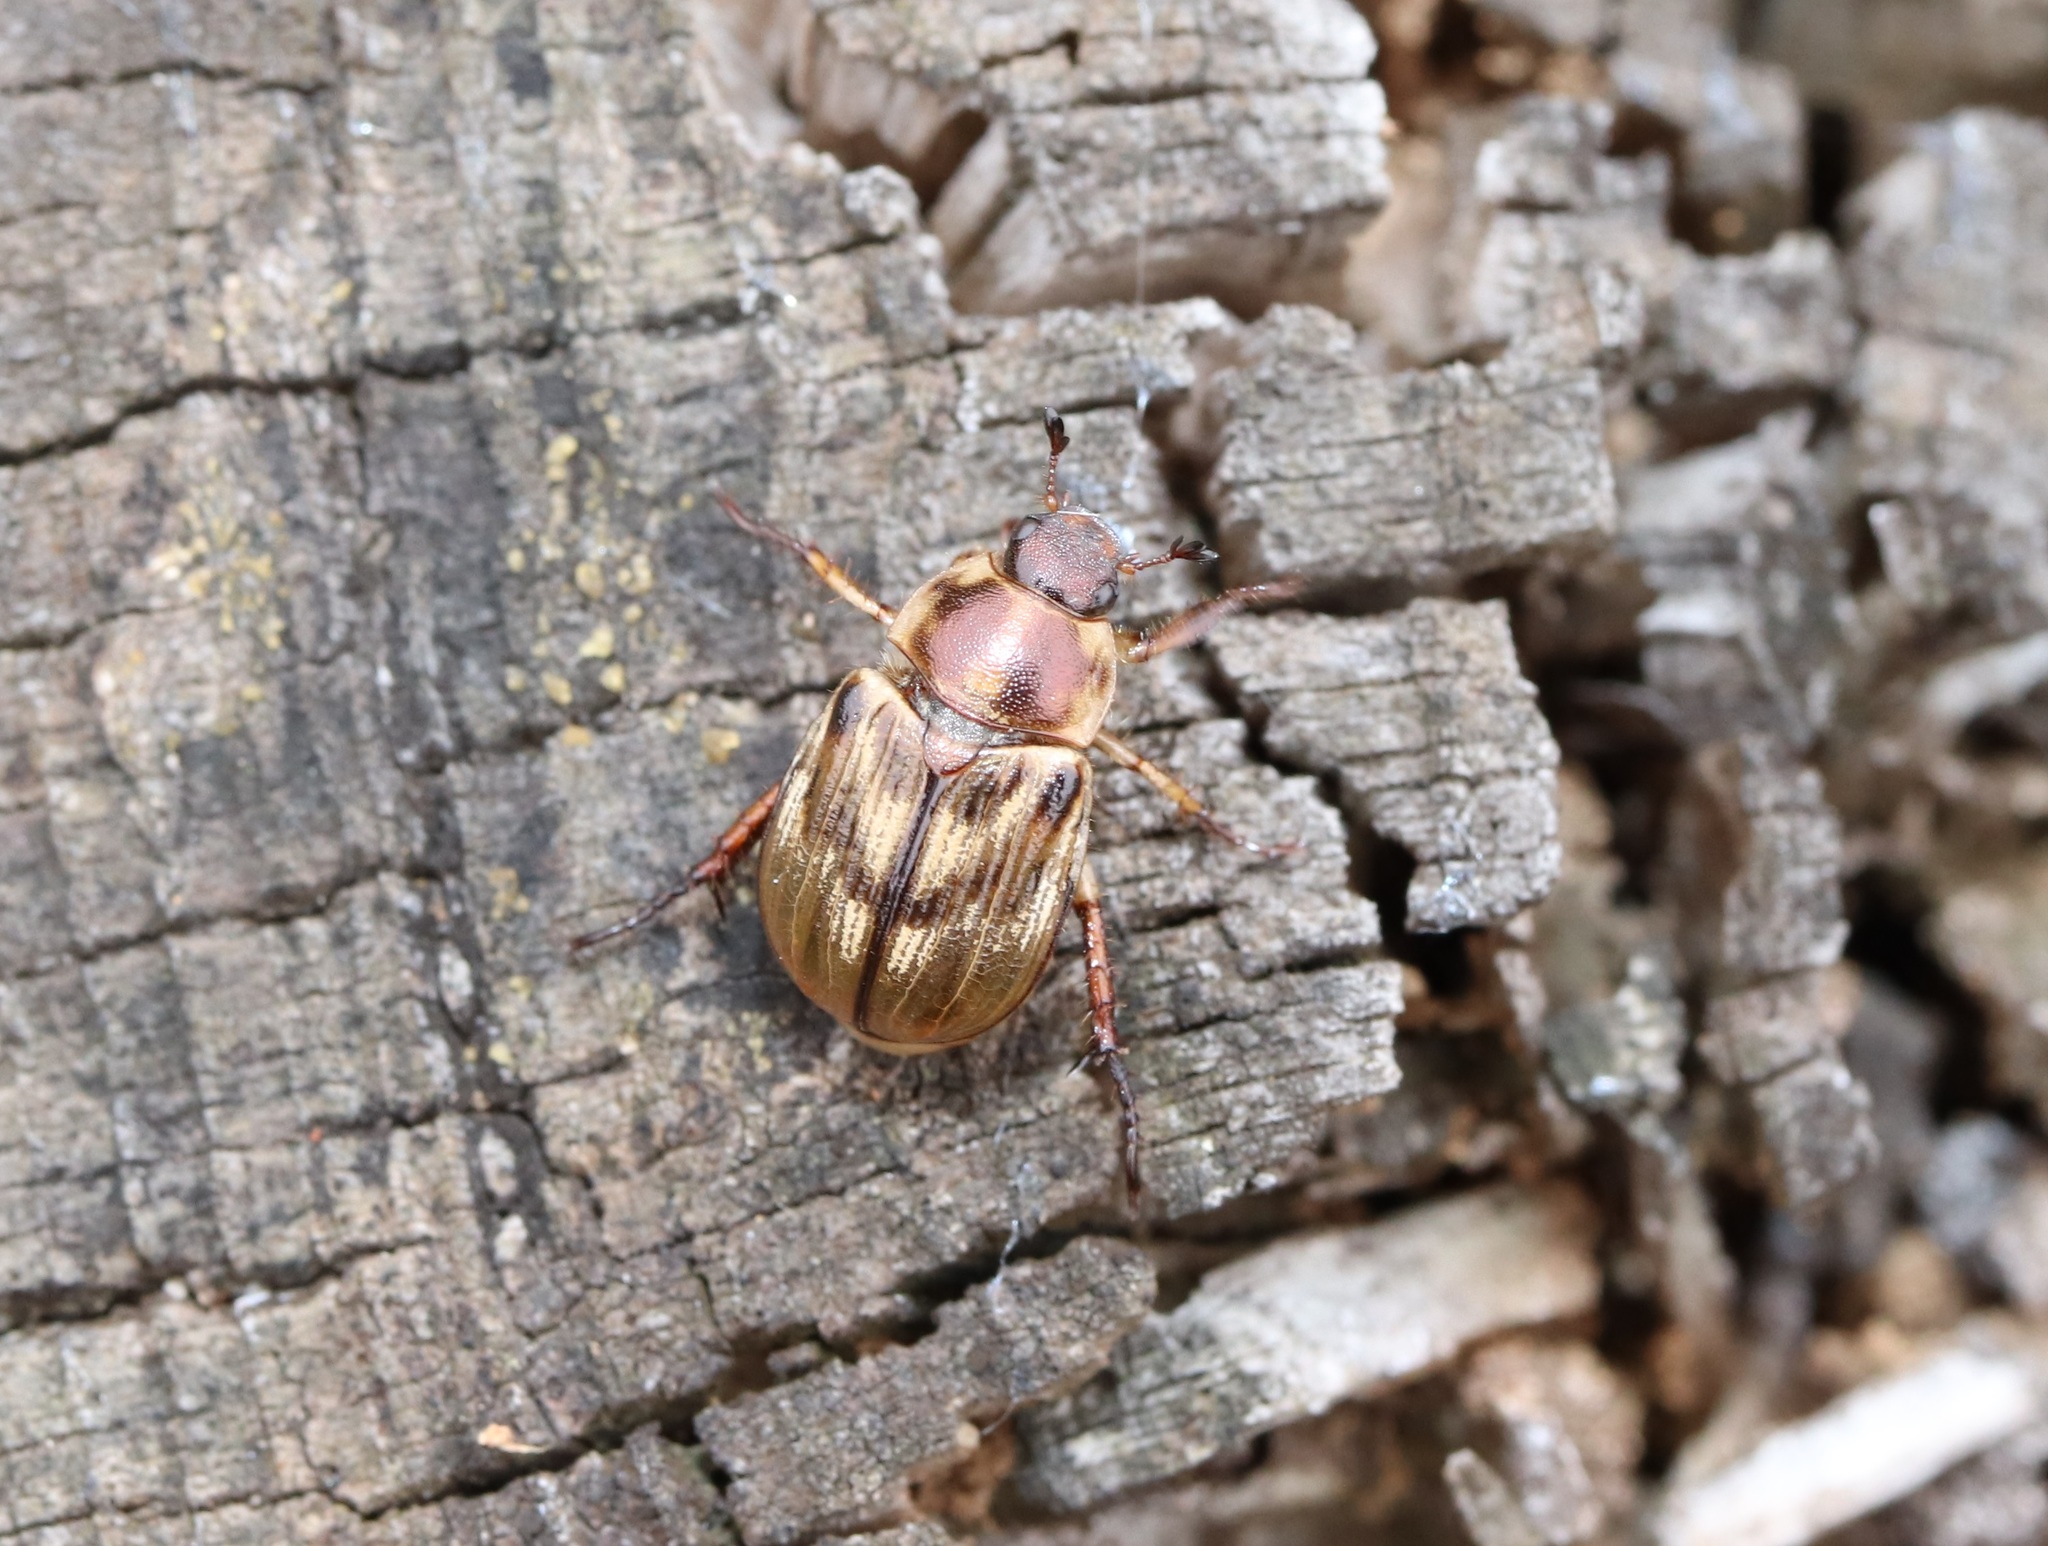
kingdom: Animalia
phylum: Arthropoda
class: Insecta
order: Coleoptera
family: Scarabaeidae
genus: Exomala
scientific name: Exomala orientalis
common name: Oriental beetle
